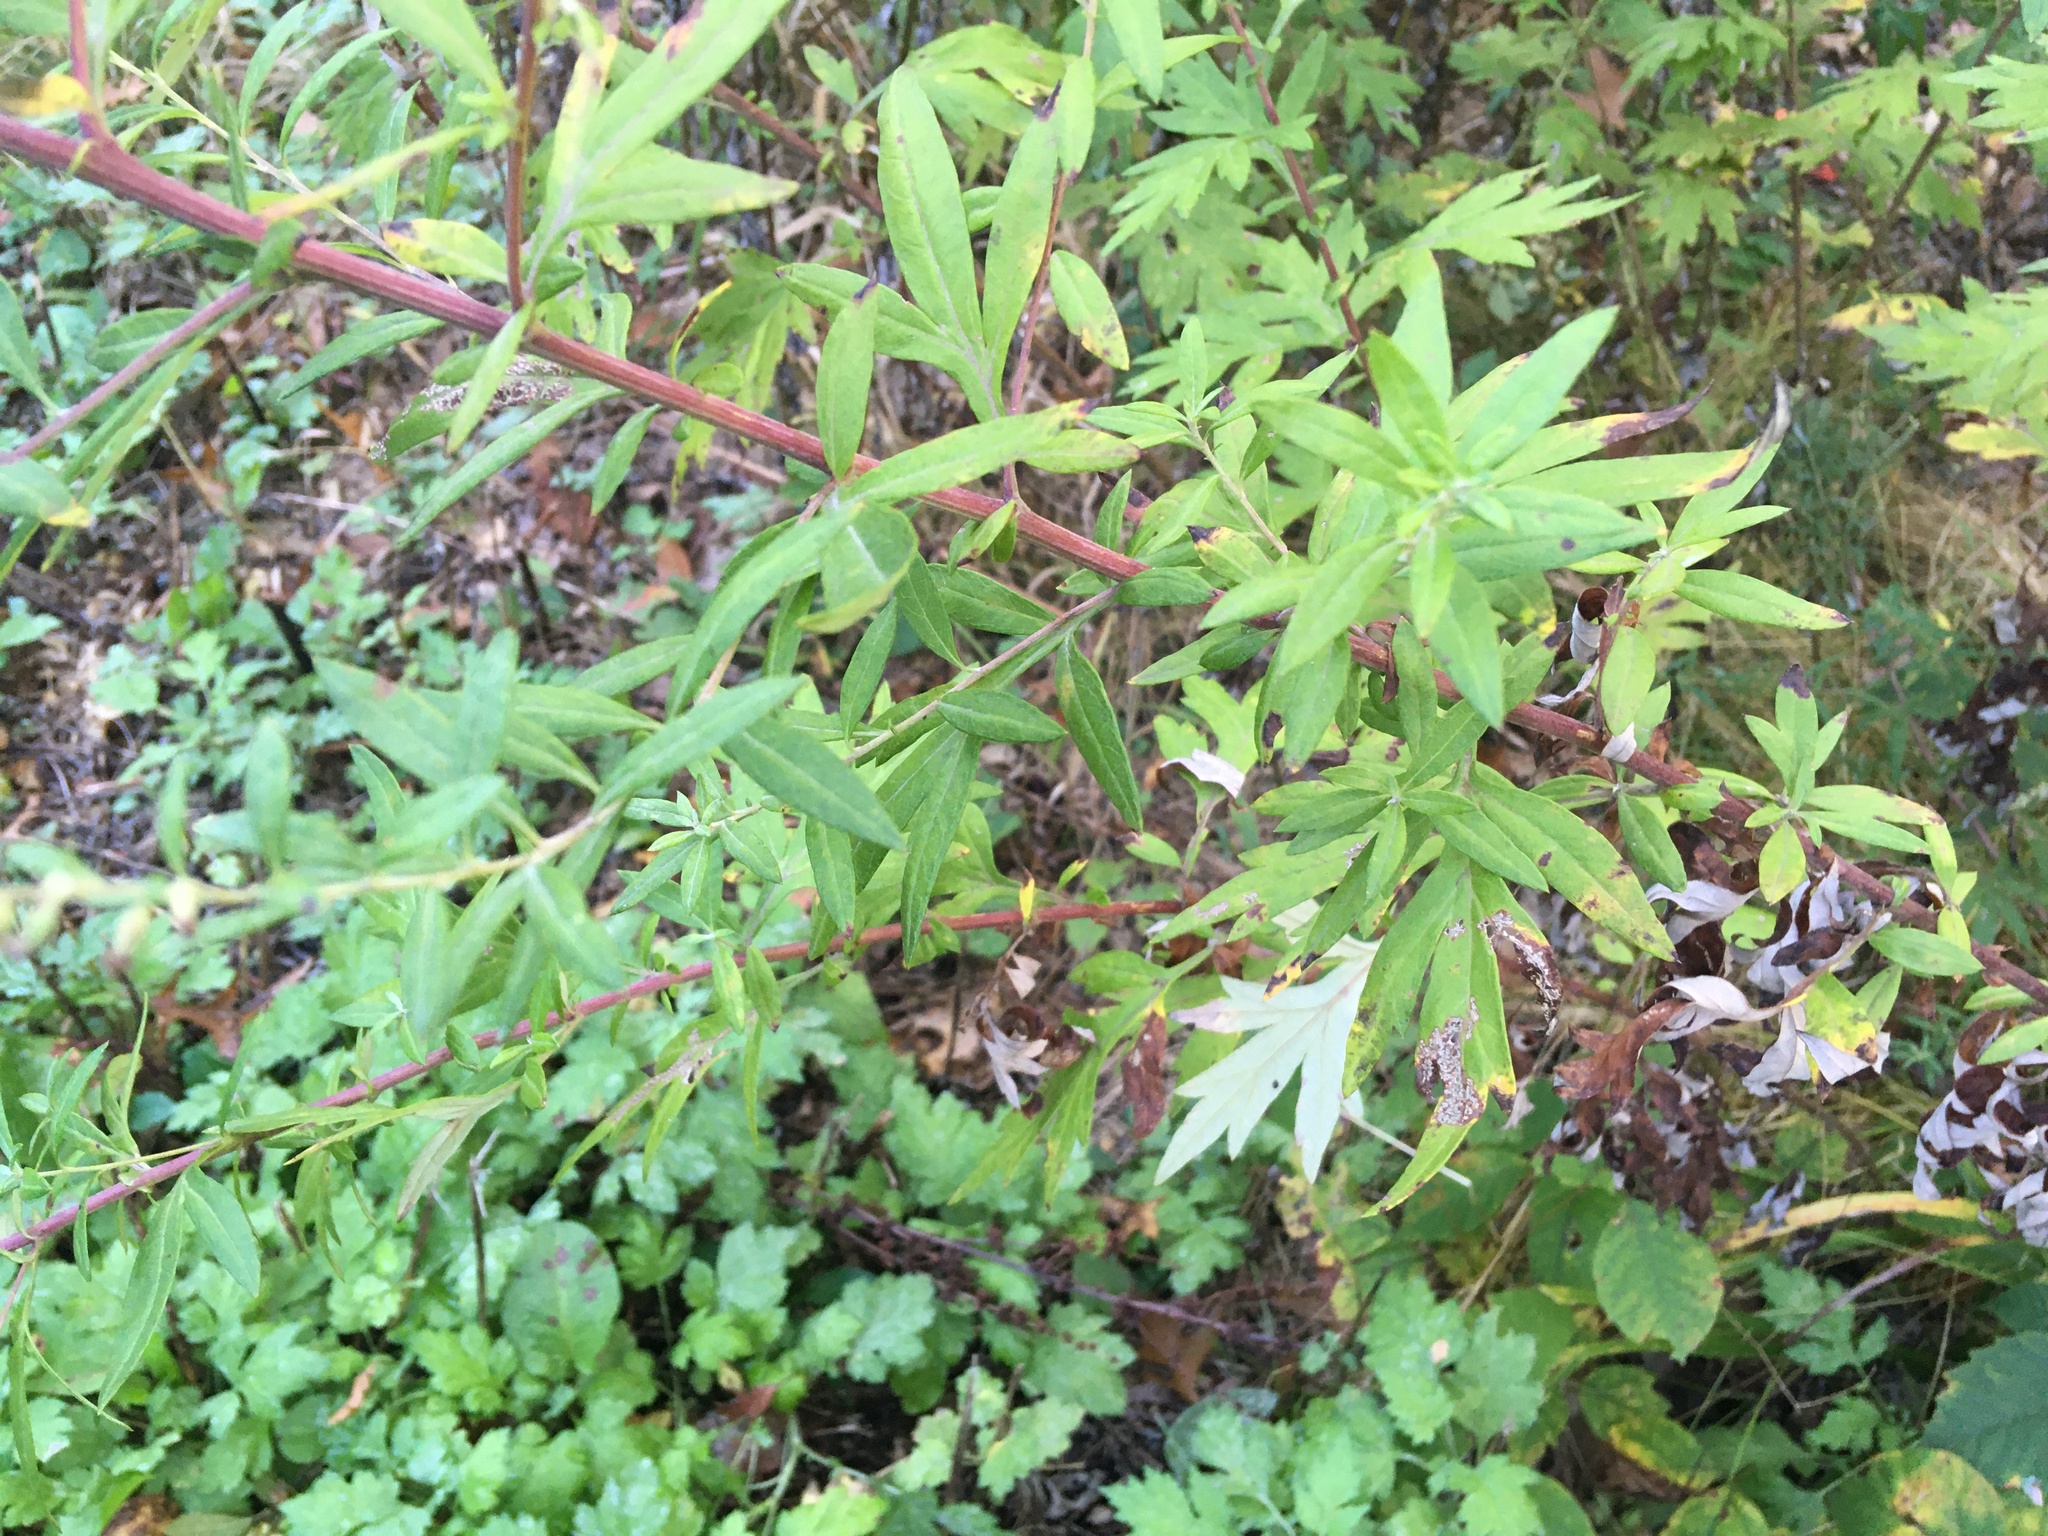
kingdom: Plantae
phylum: Tracheophyta
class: Magnoliopsida
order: Asterales
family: Asteraceae
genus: Artemisia
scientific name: Artemisia vulgaris
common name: Mugwort
